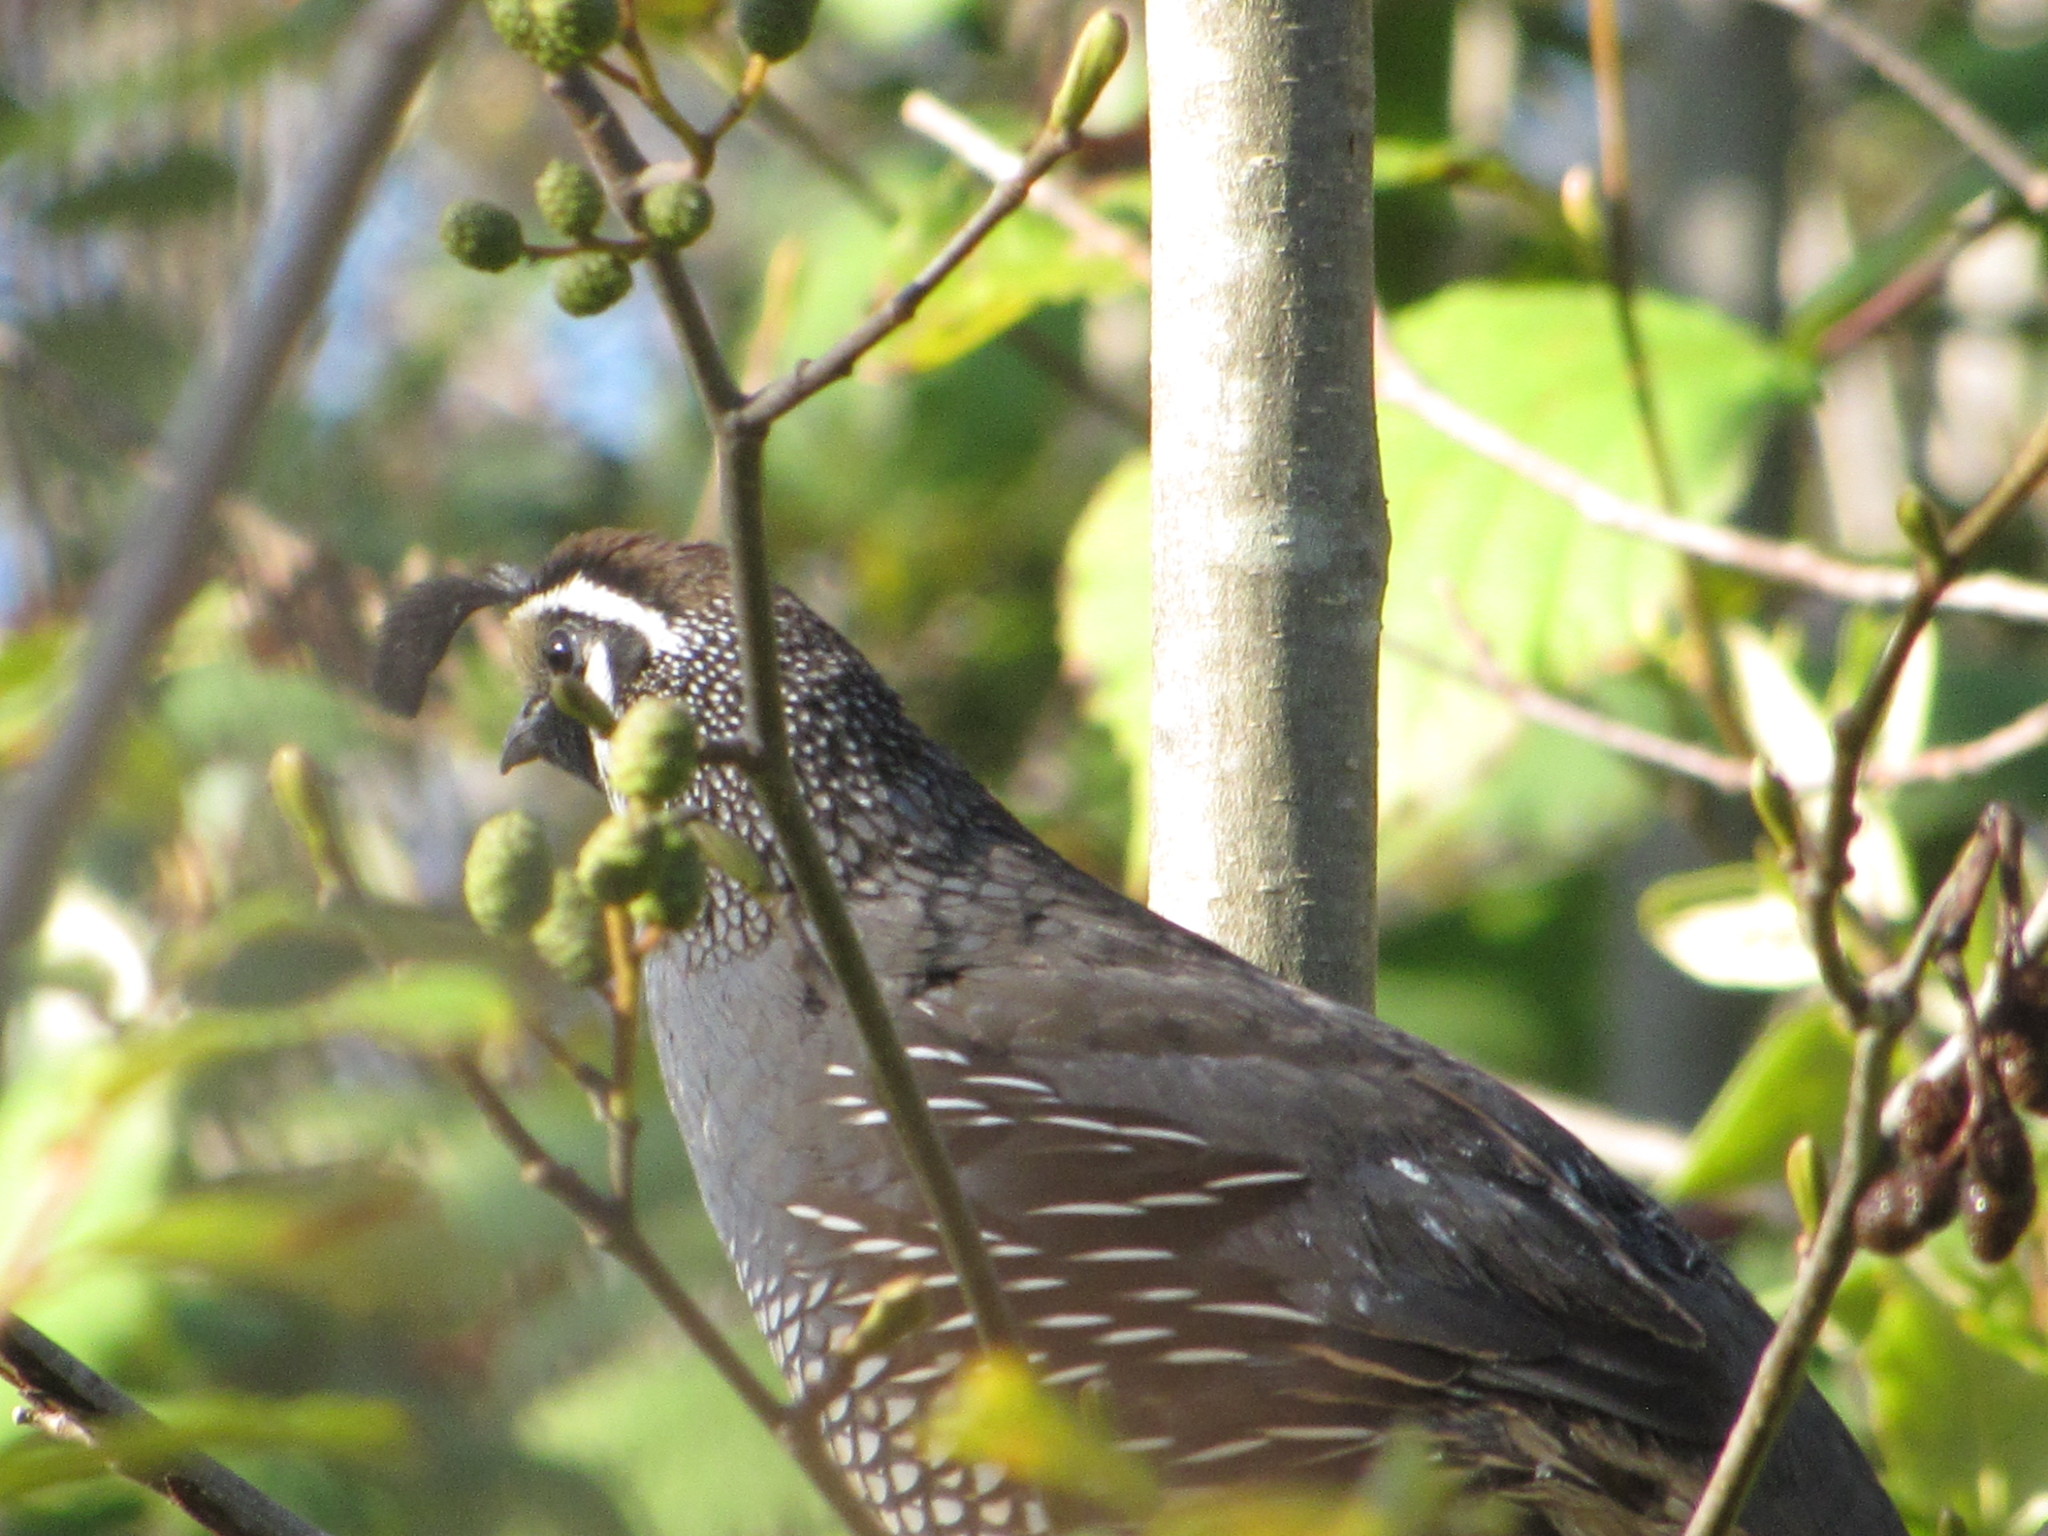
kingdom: Animalia
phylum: Chordata
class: Aves
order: Galliformes
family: Odontophoridae
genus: Callipepla
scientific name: Callipepla californica
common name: California quail
